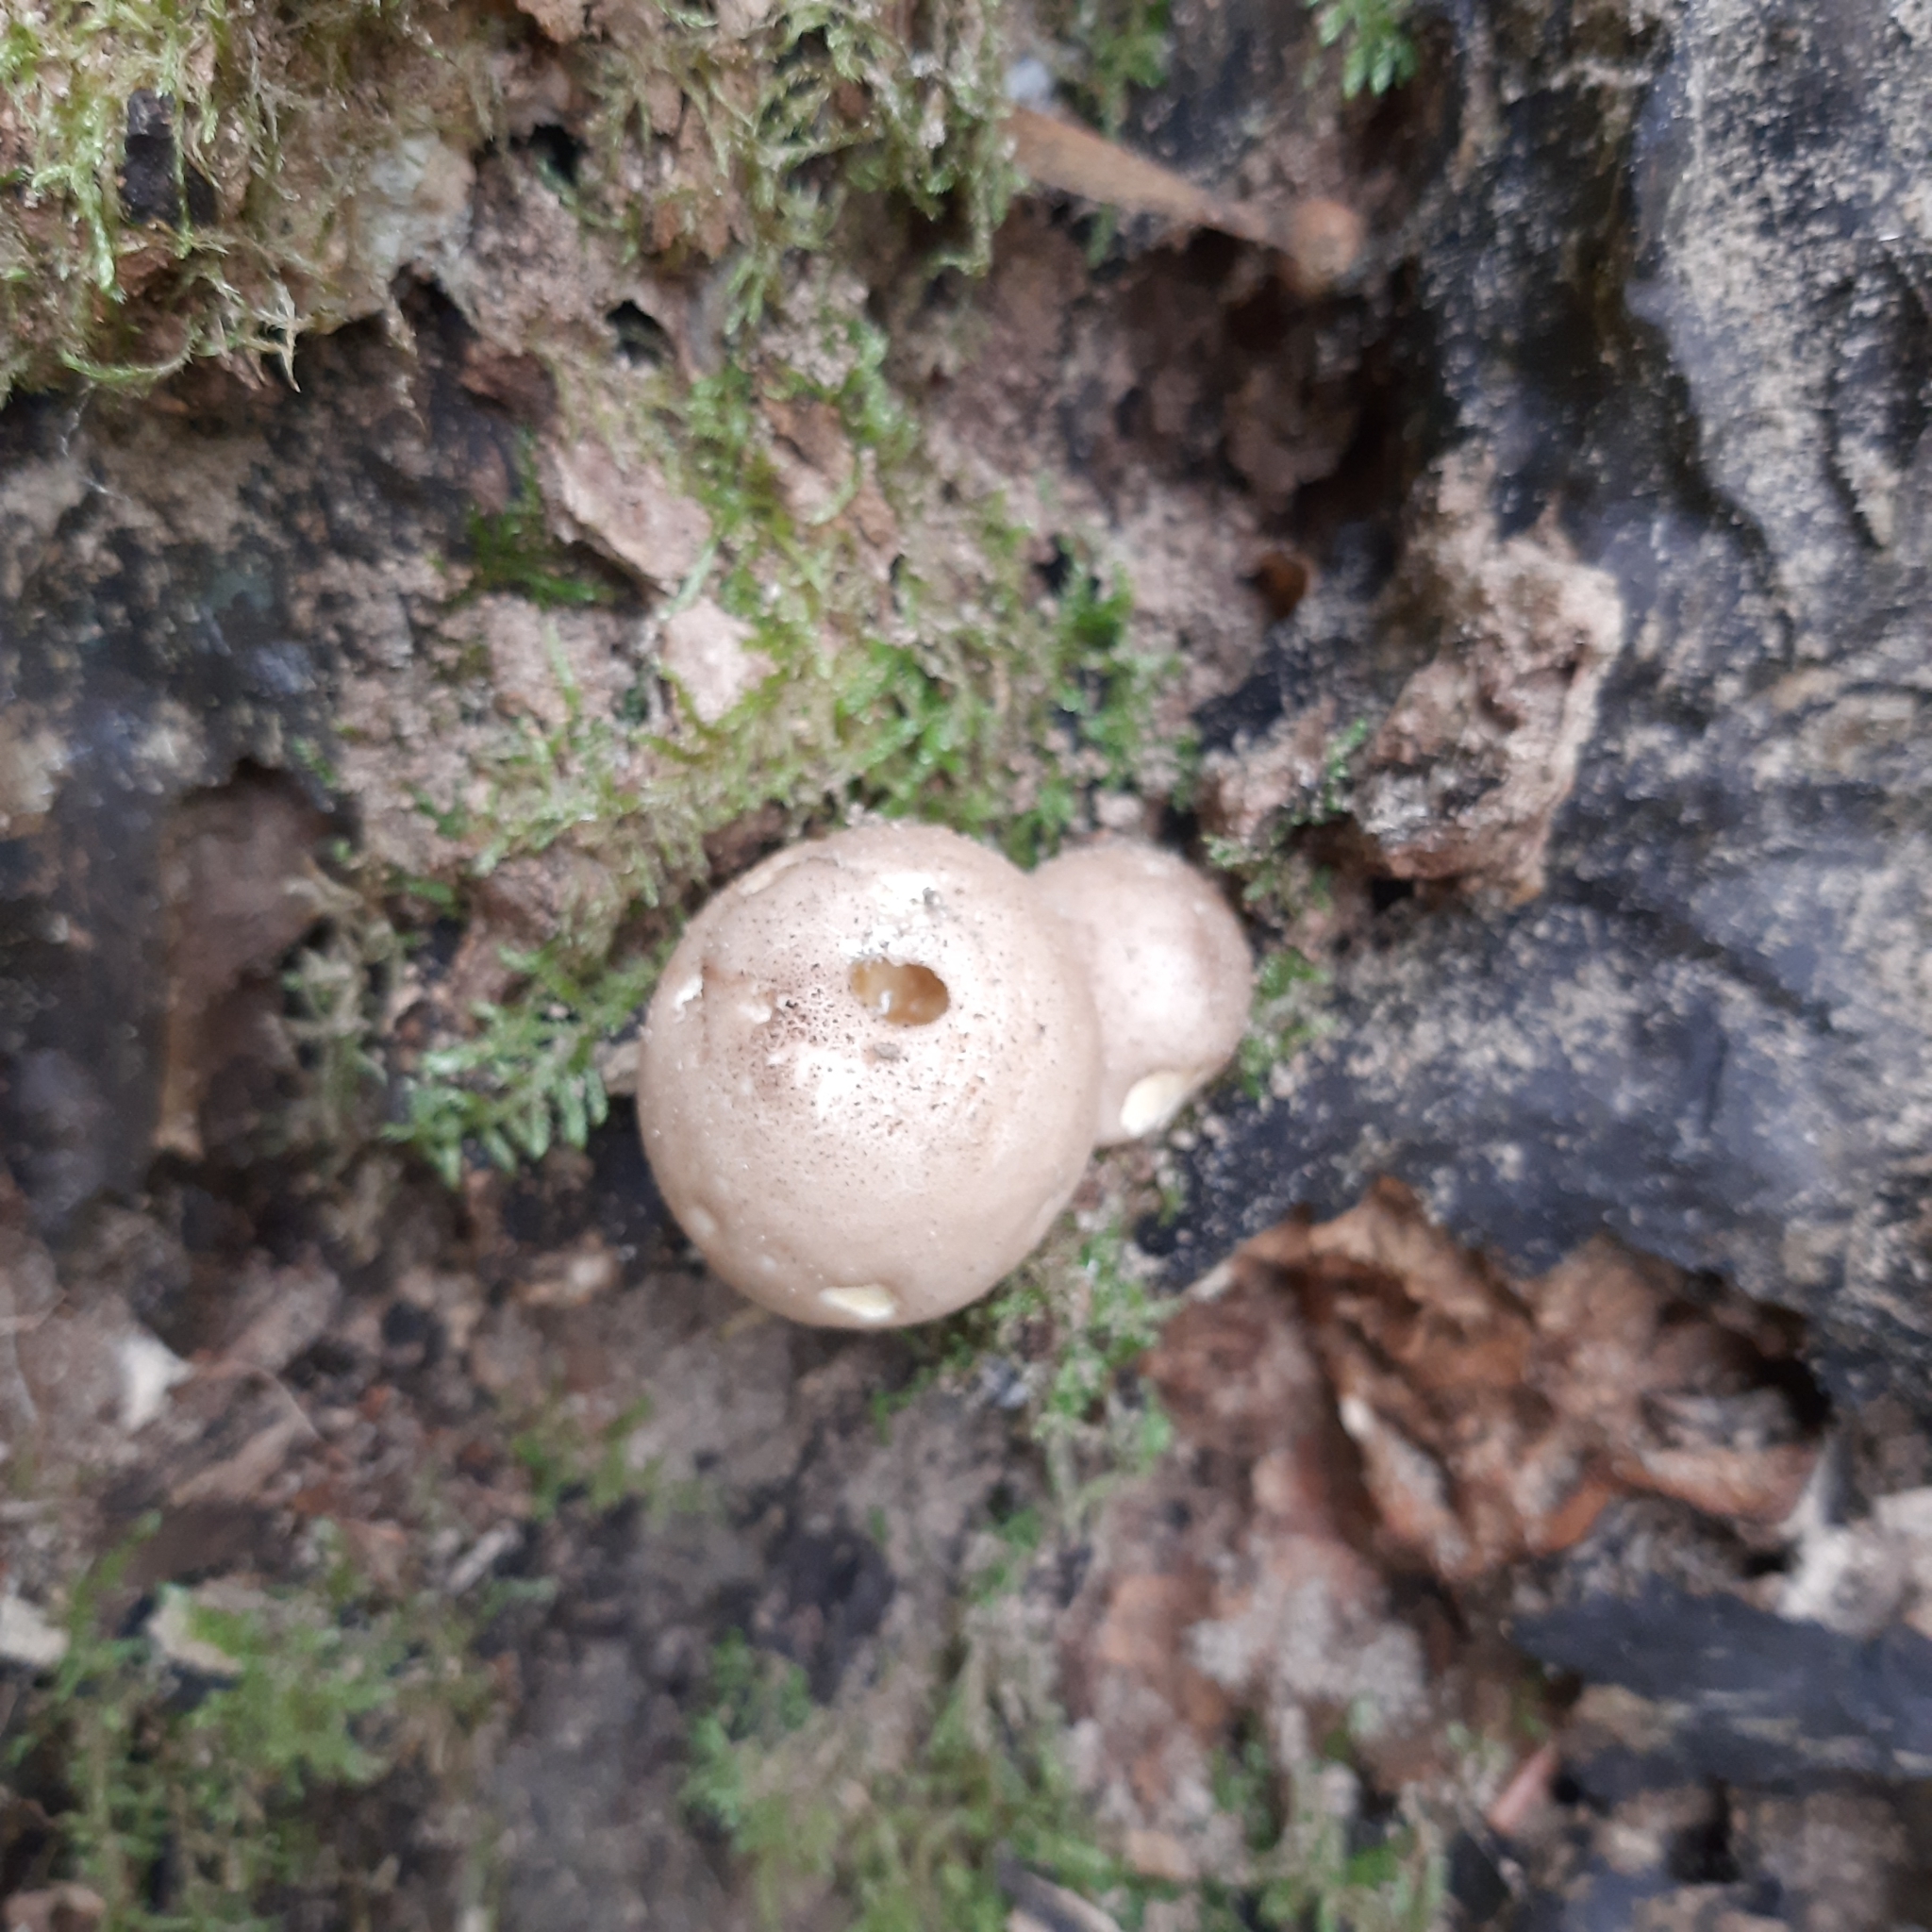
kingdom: Fungi
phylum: Basidiomycota
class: Agaricomycetes
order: Agaricales
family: Lycoperdaceae
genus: Apioperdon
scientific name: Apioperdon pyriforme
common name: Pear-shaped puffball
